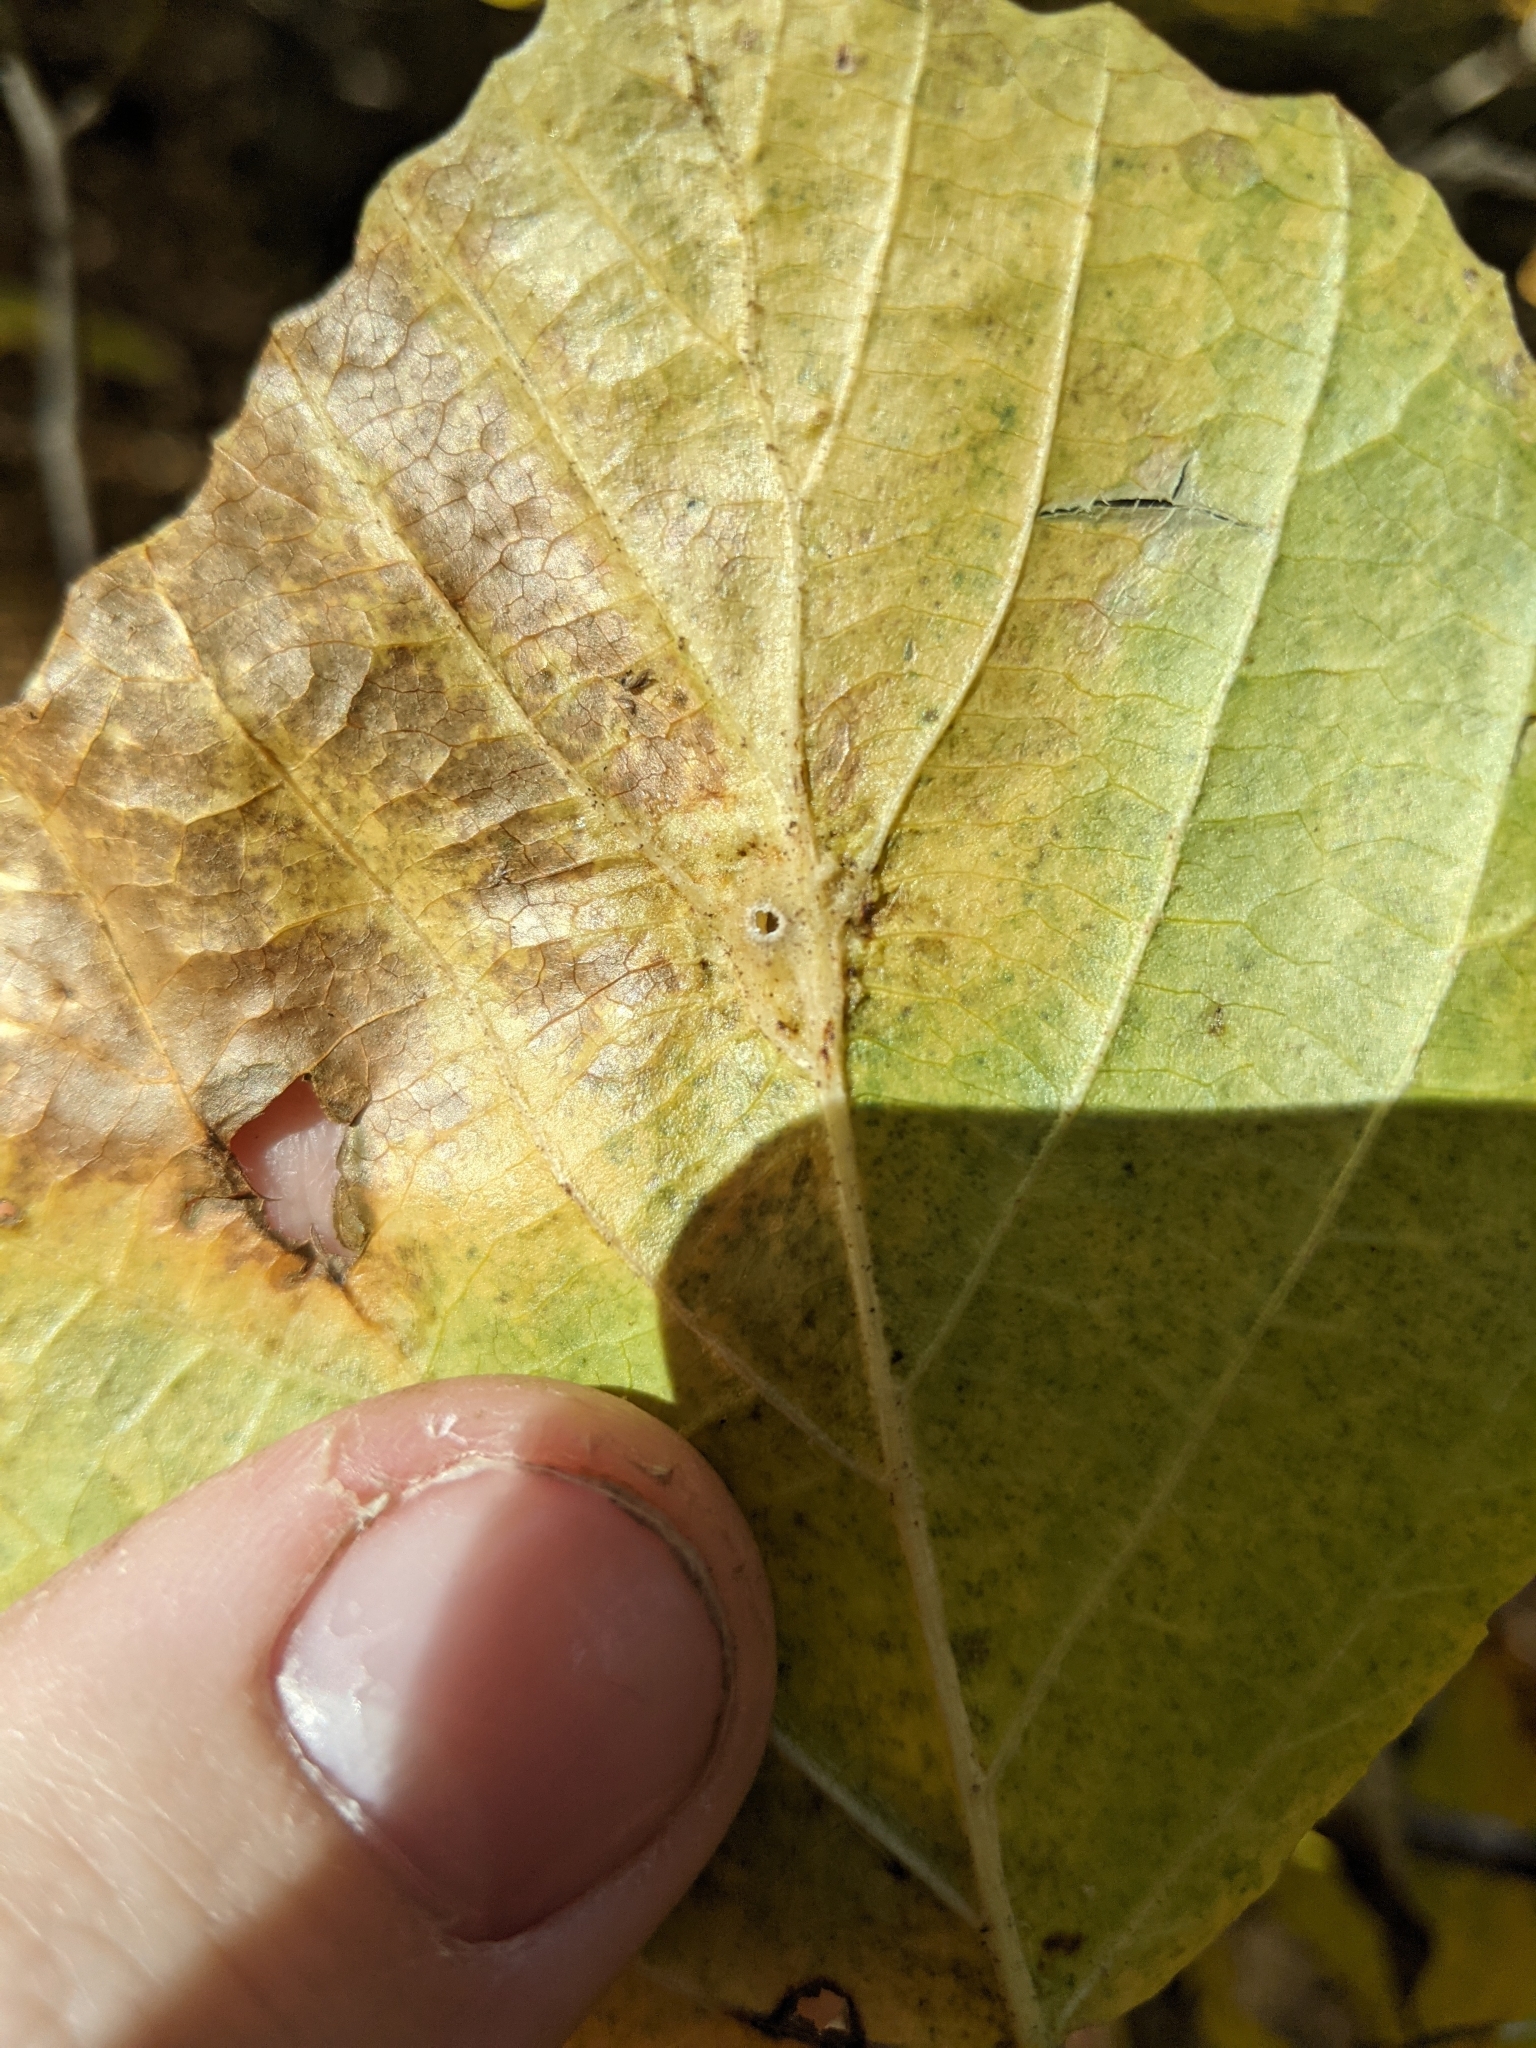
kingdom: Animalia
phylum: Arthropoda
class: Insecta
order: Hemiptera
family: Aphididae
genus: Hormaphis
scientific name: Hormaphis hamamelidis
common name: Witch-hazel cone gall aphid
